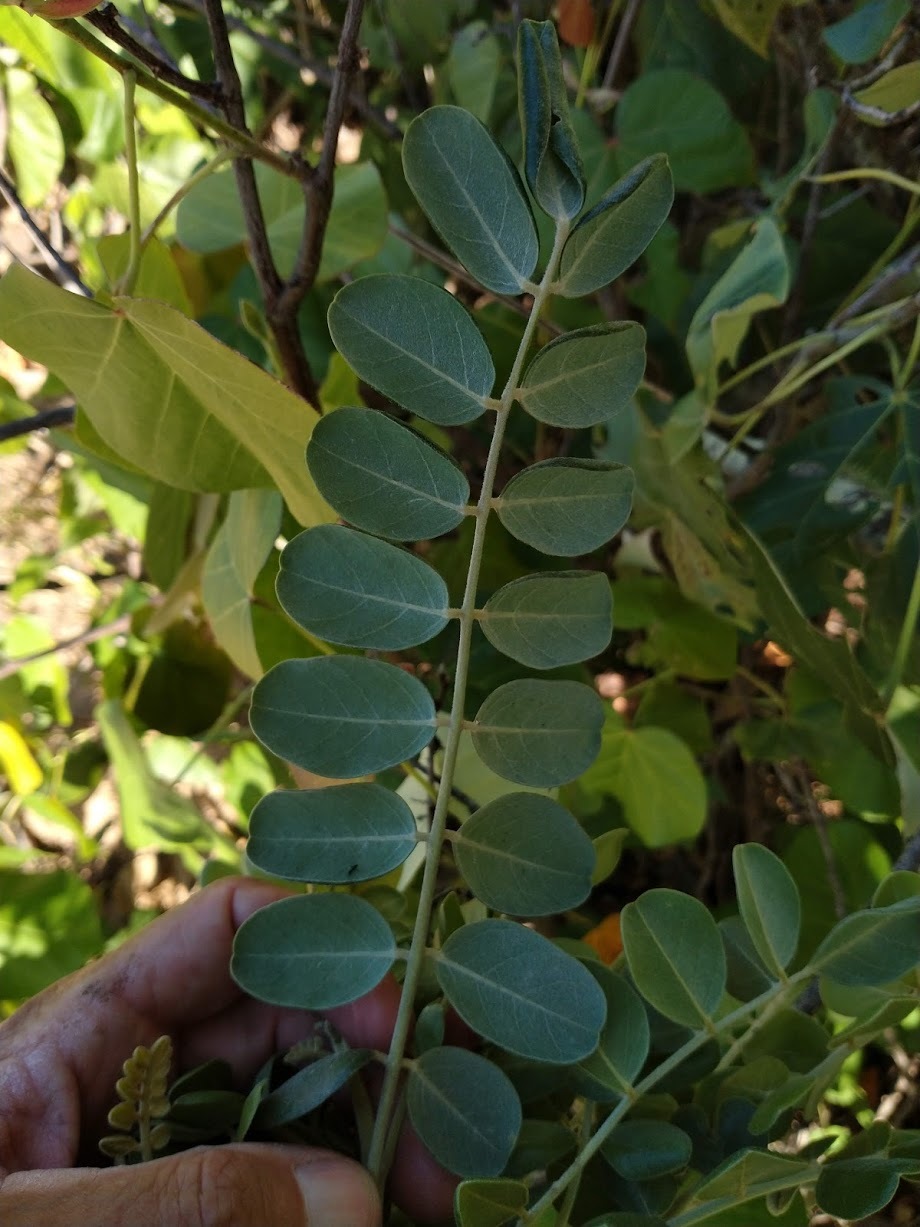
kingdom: Plantae
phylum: Tracheophyta
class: Magnoliopsida
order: Fabales
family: Fabaceae
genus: Sophora
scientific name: Sophora tomentosa
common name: Yellow necklacepod
